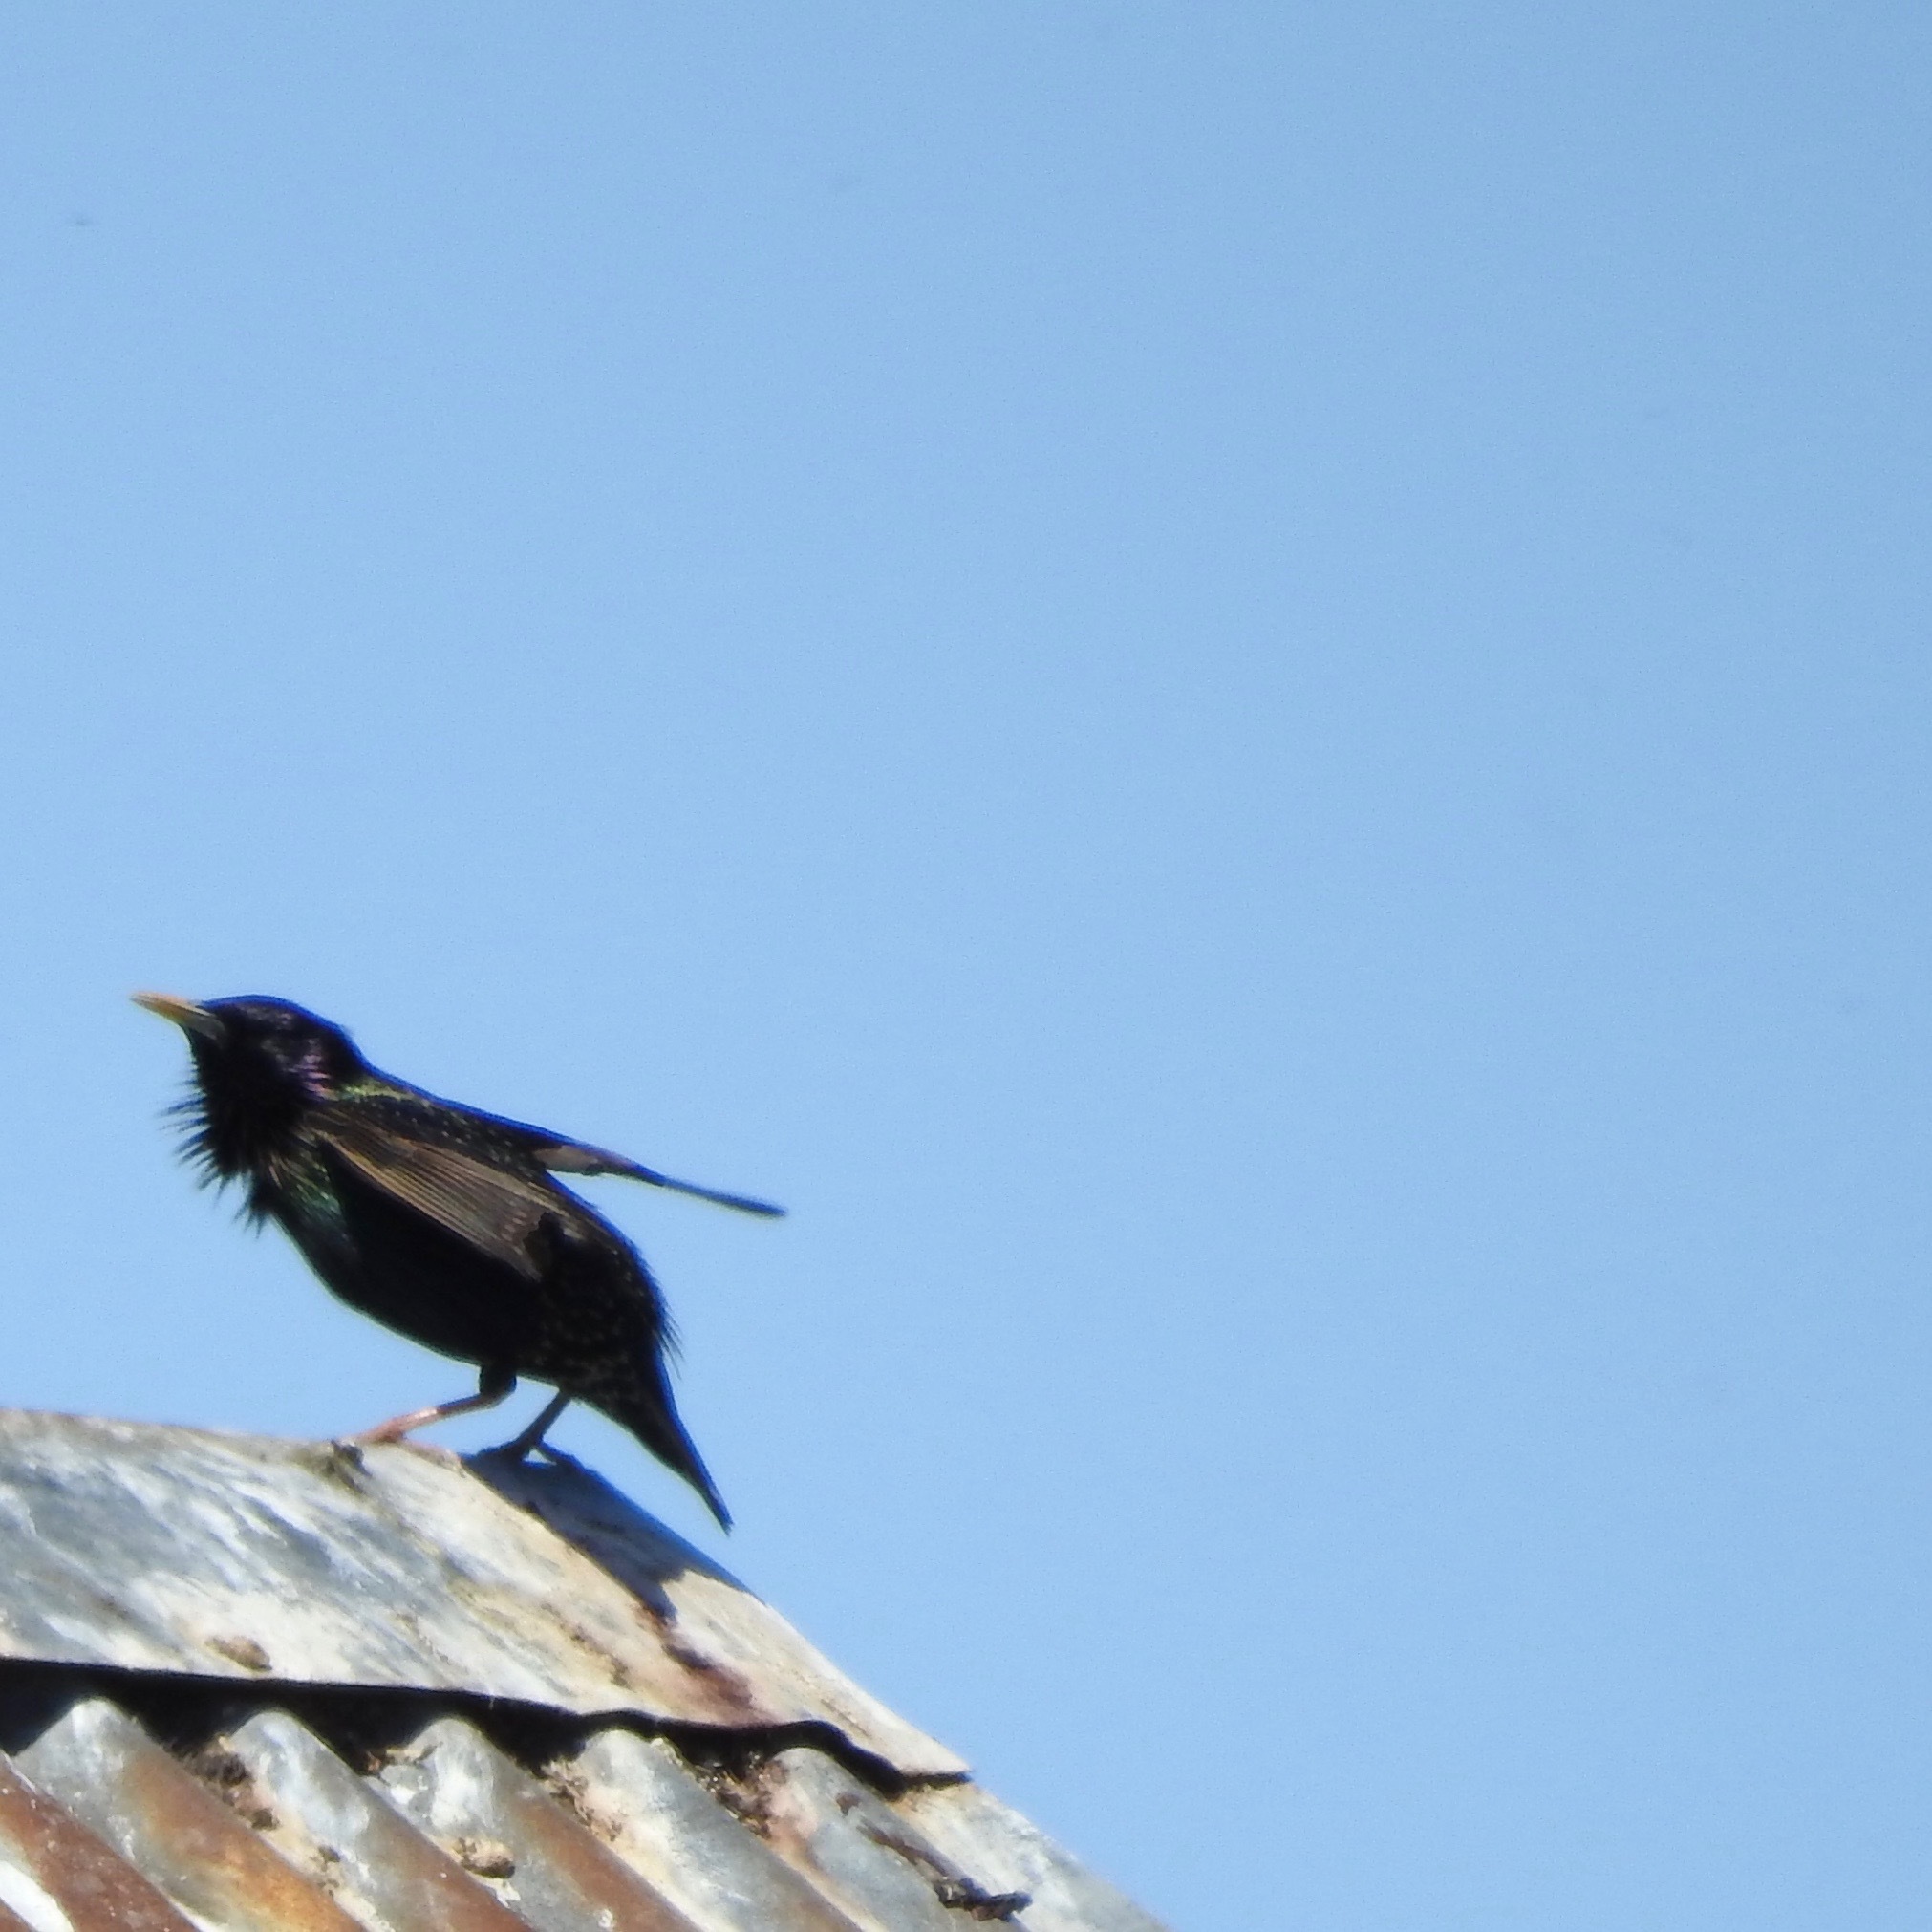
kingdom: Animalia
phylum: Chordata
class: Aves
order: Passeriformes
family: Sturnidae
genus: Sturnus
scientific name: Sturnus vulgaris
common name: Common starling
